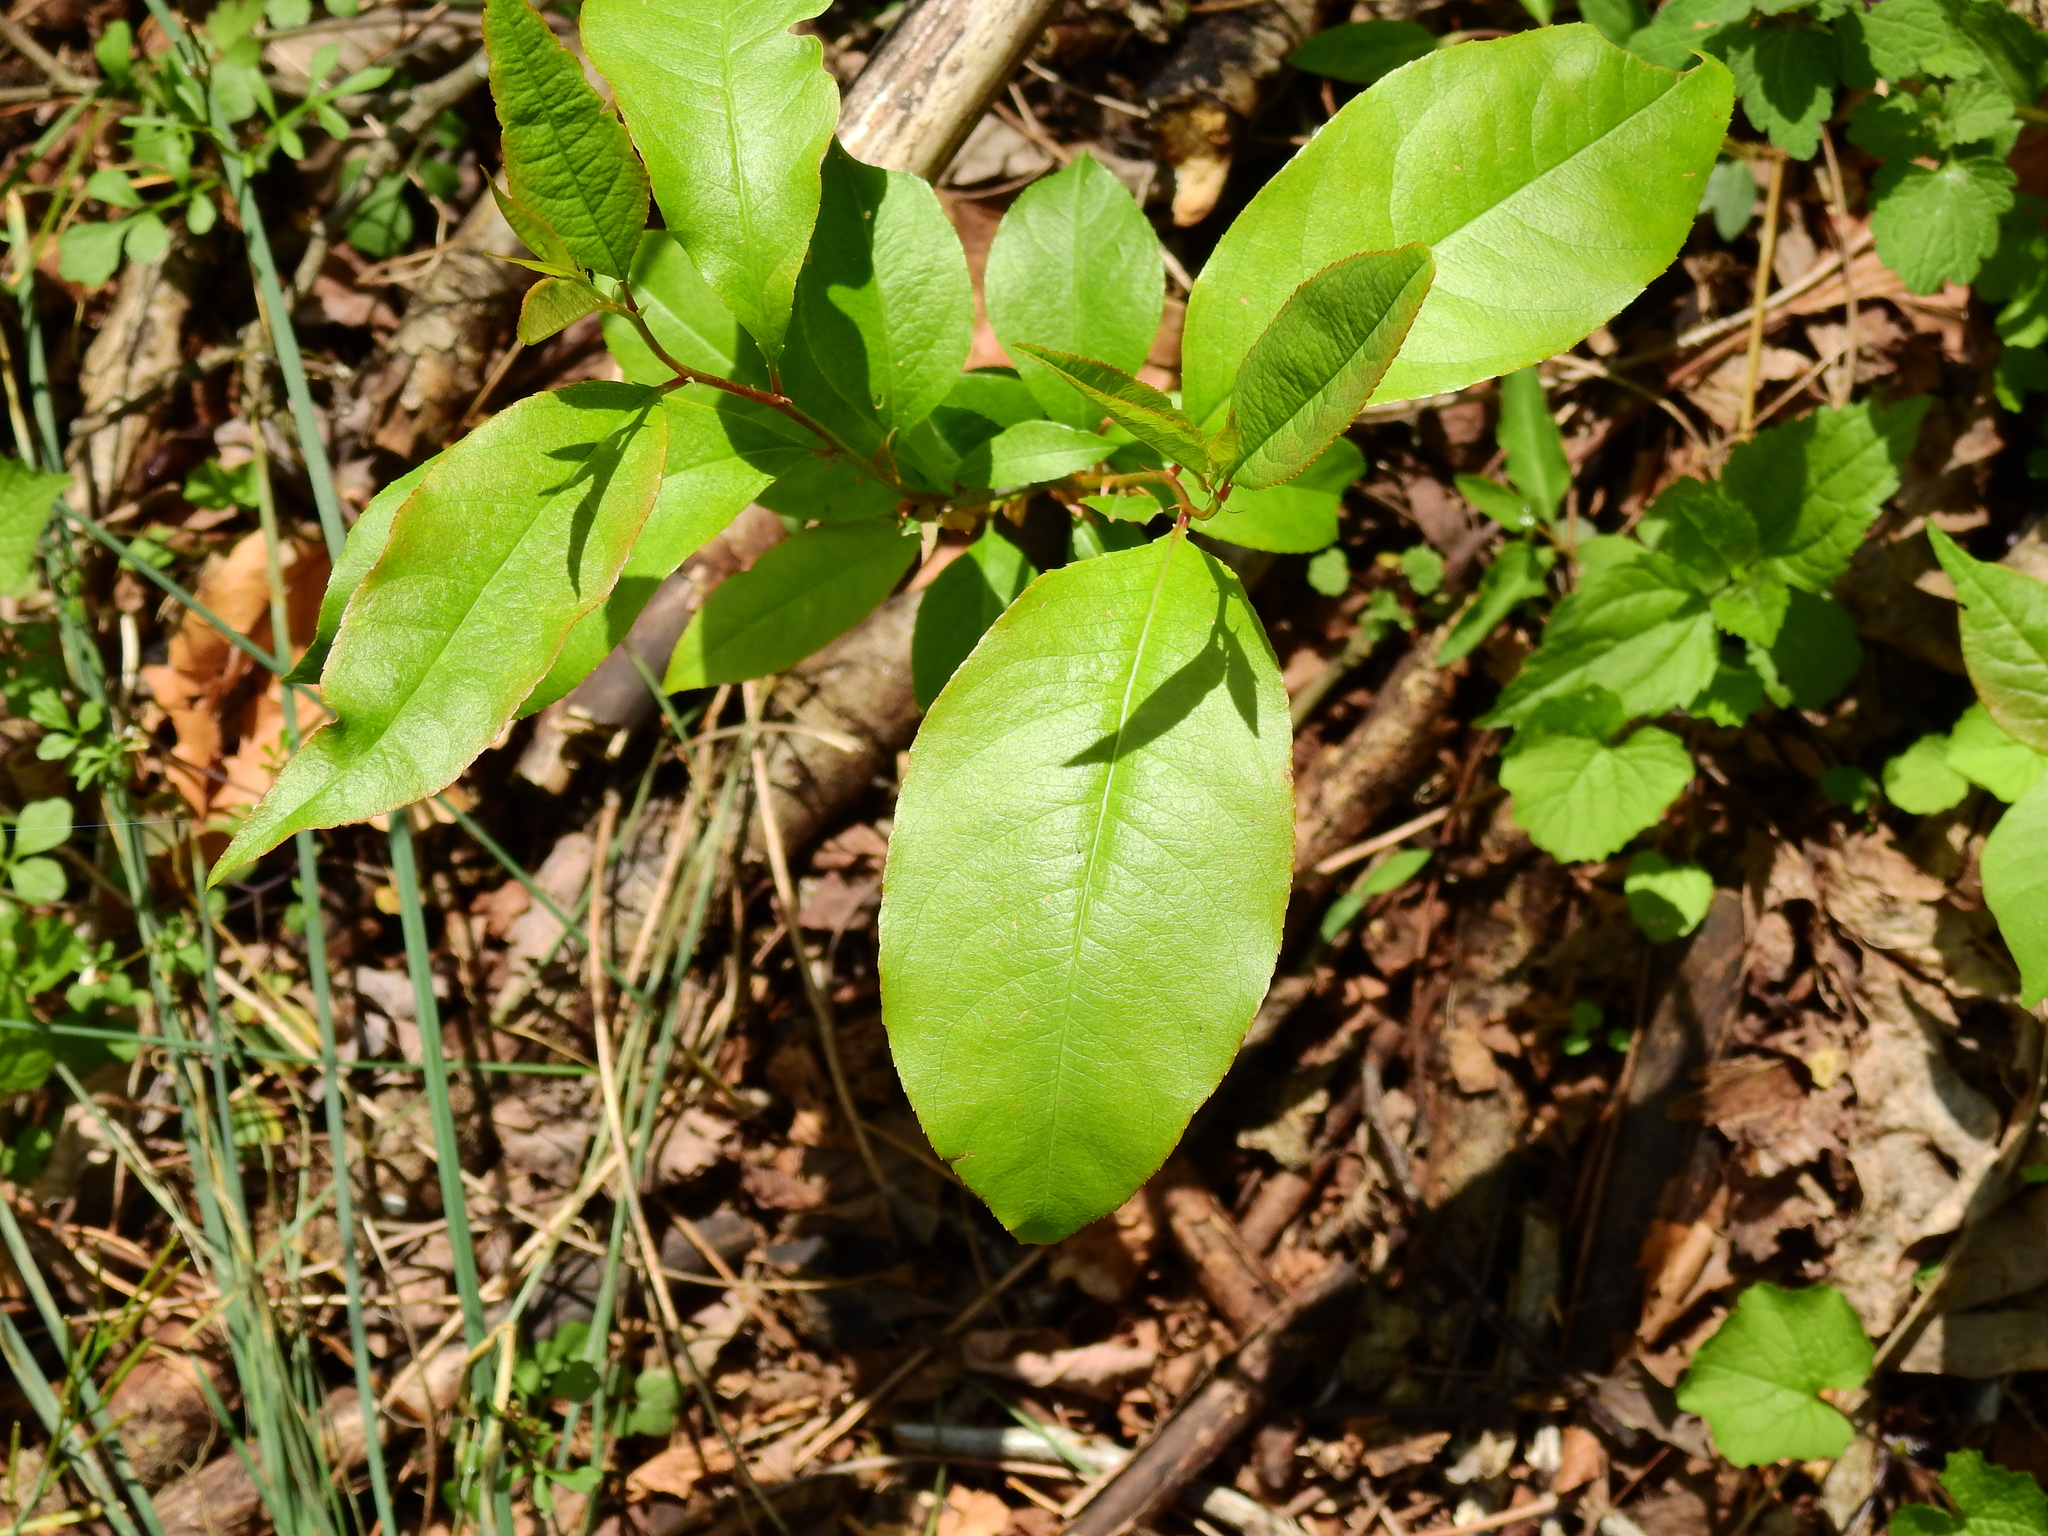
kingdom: Plantae
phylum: Tracheophyta
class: Magnoliopsida
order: Rosales
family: Rosaceae
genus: Prunus
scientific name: Prunus serotina
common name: Black cherry
